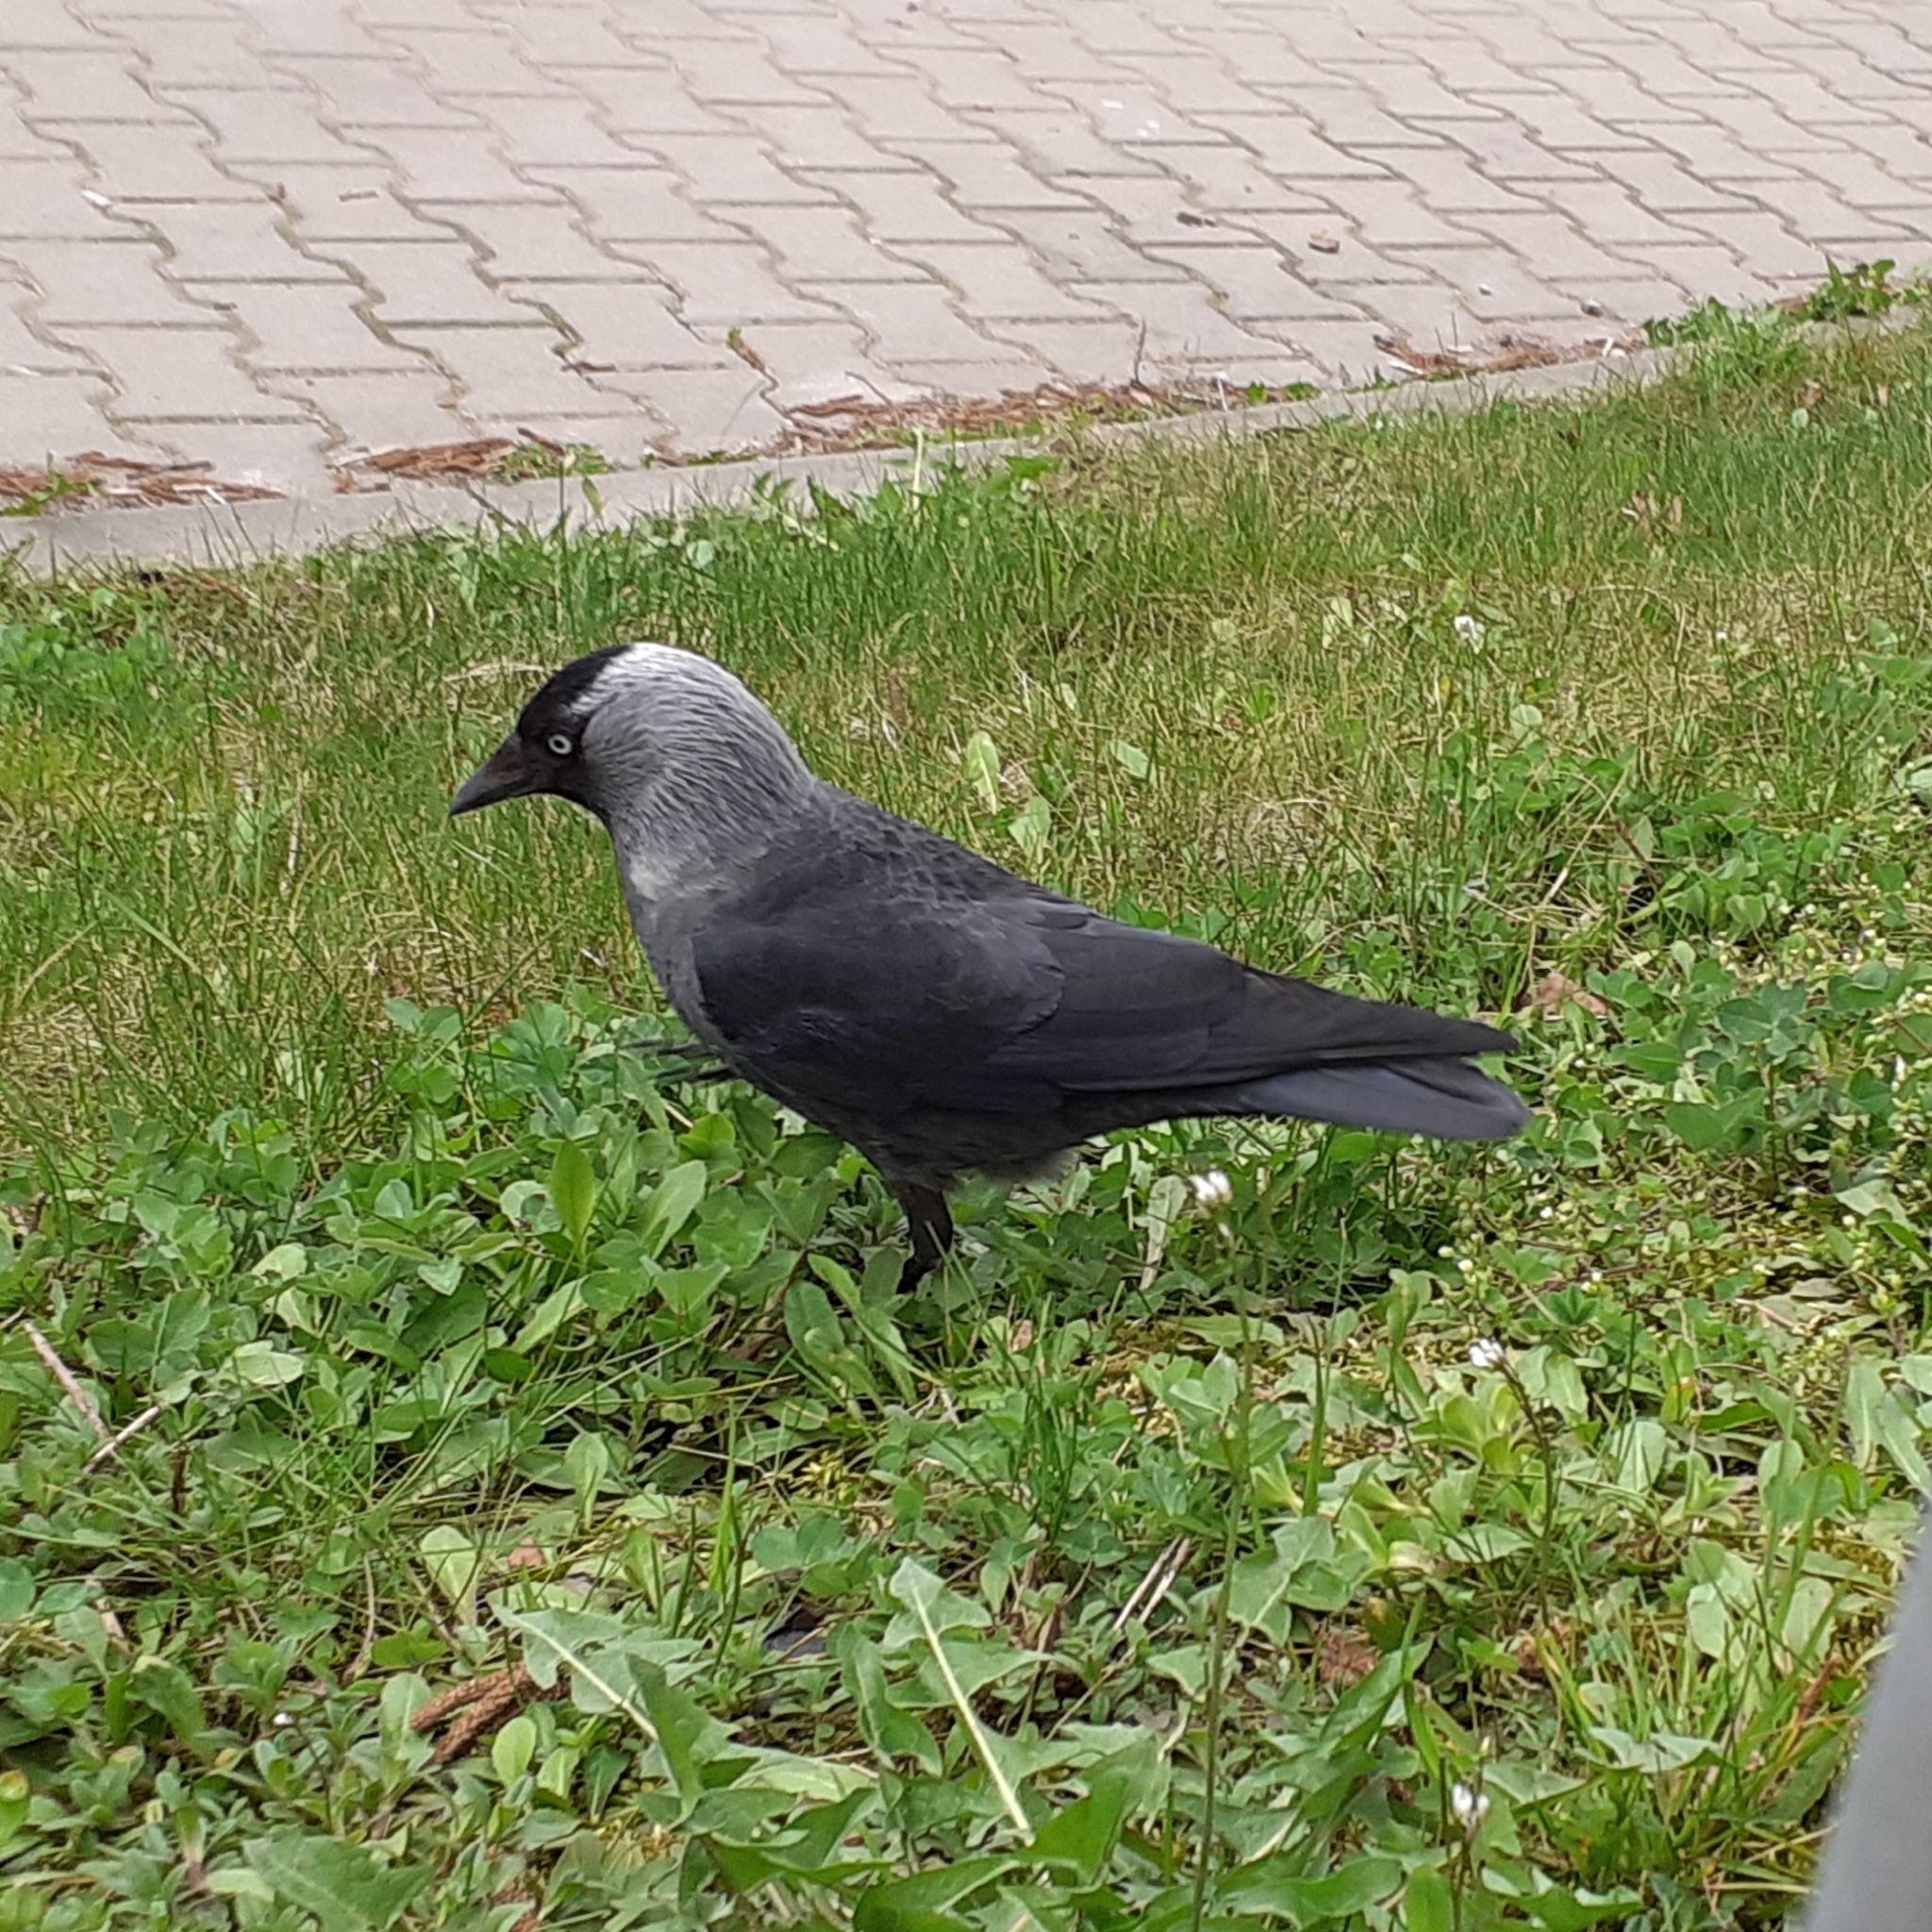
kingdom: Animalia
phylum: Chordata
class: Aves
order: Passeriformes
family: Corvidae
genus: Coloeus
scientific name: Coloeus monedula
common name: Western jackdaw
